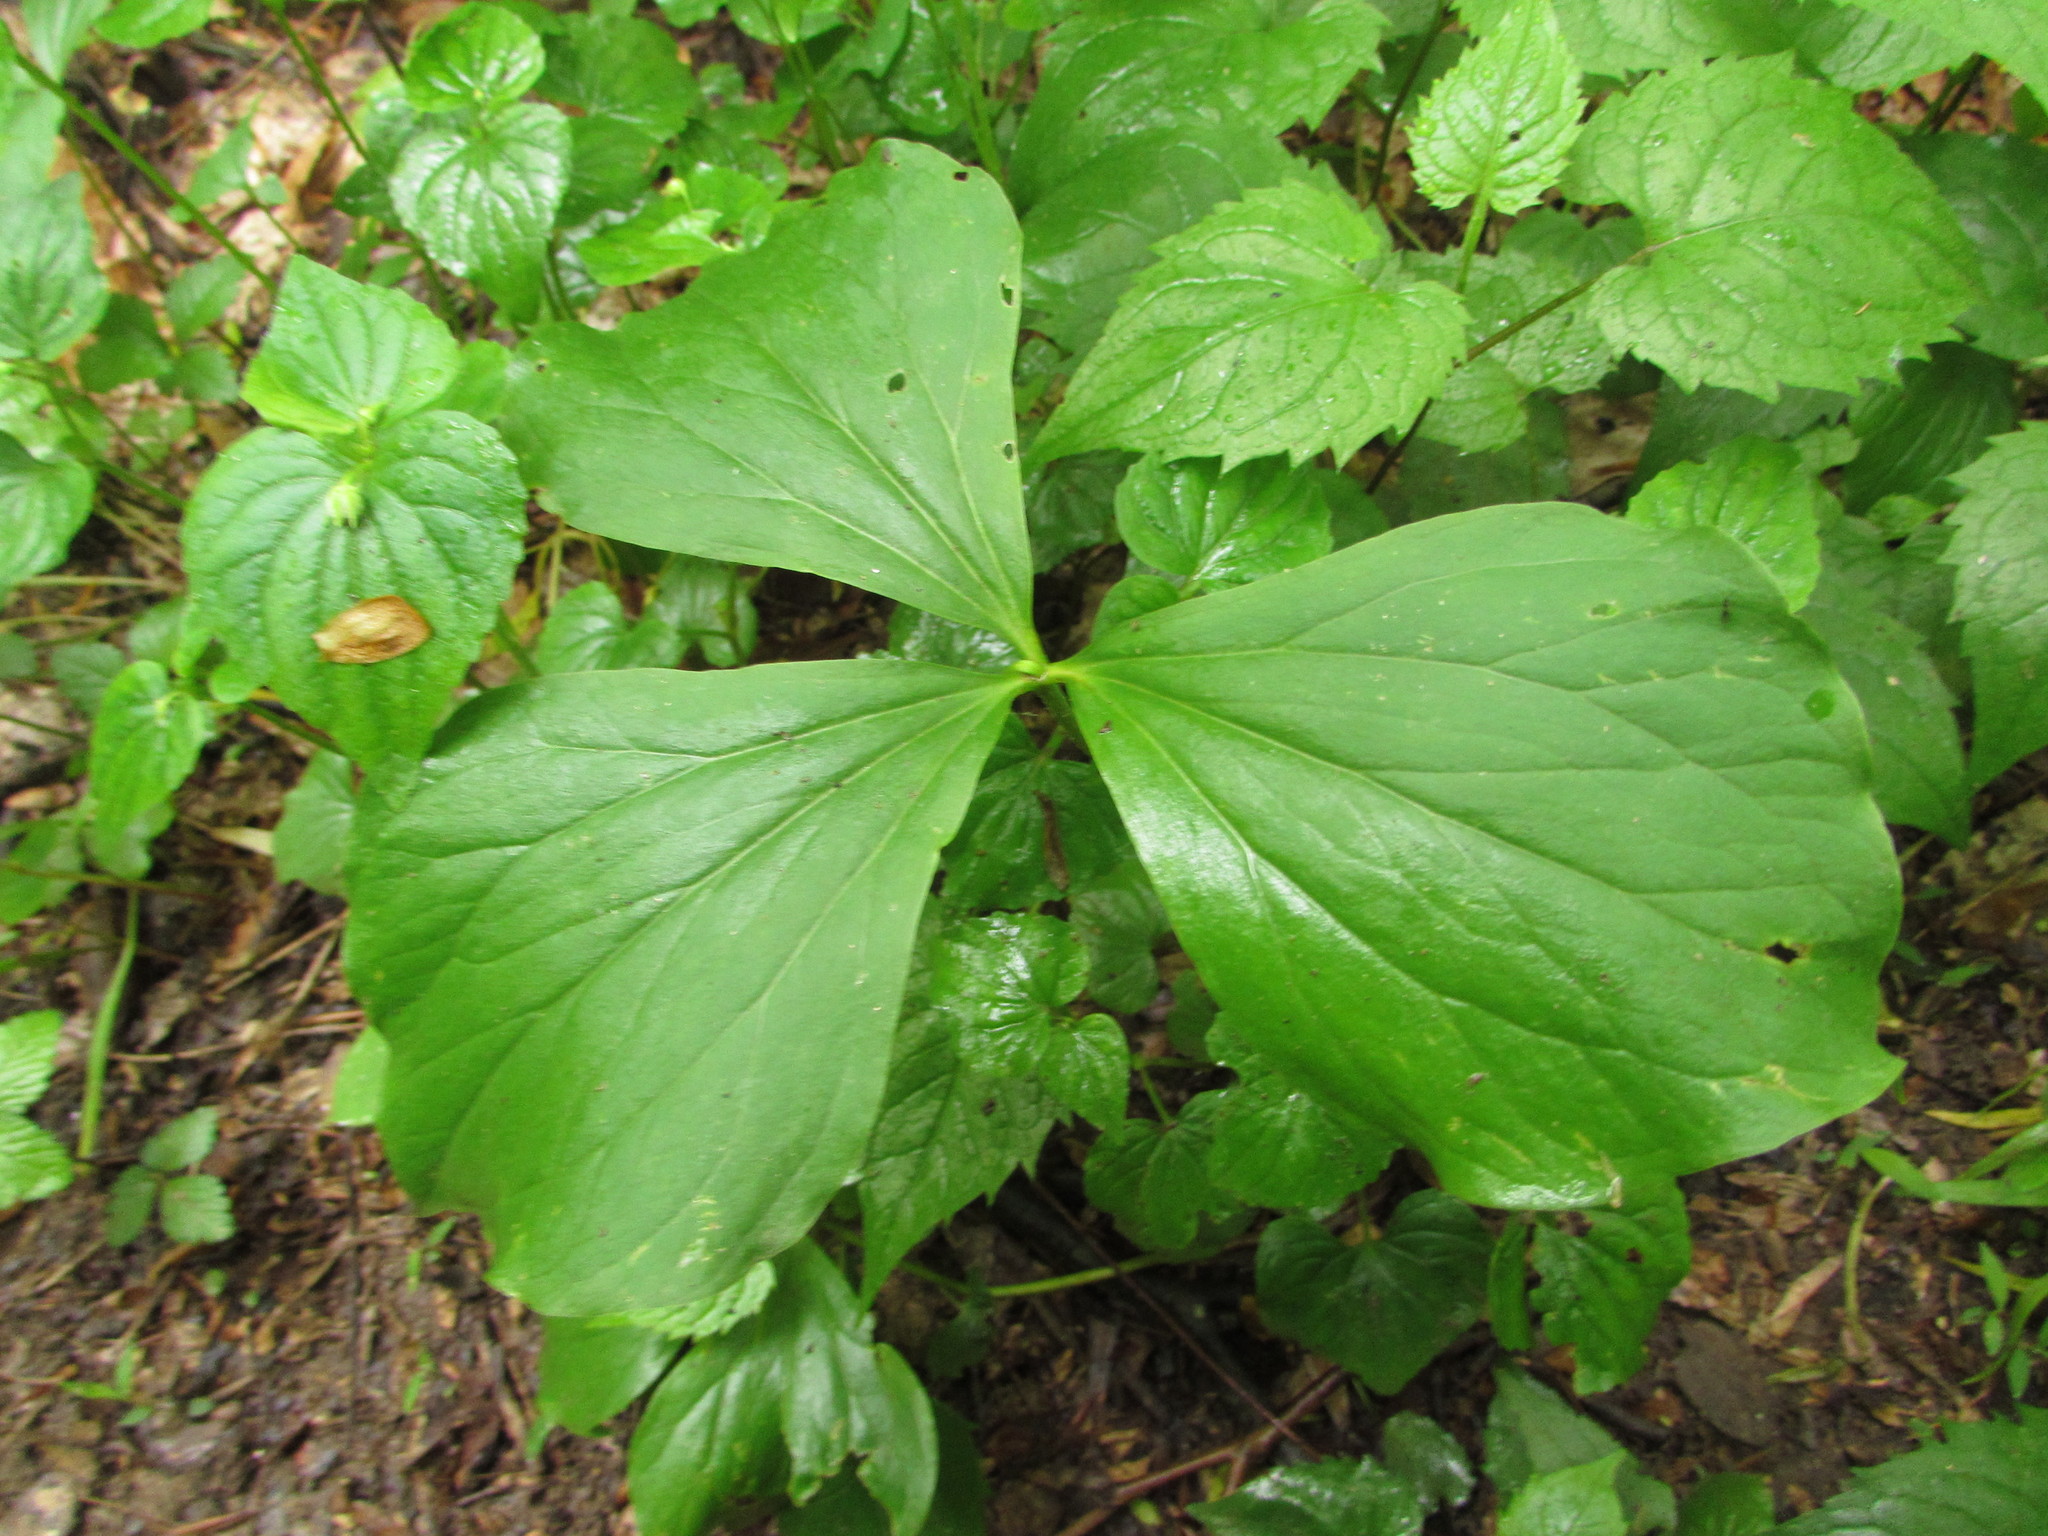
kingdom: Plantae
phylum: Tracheophyta
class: Liliopsida
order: Liliales
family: Melanthiaceae
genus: Trillium
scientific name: Trillium cernuum
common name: Nodding trillium
